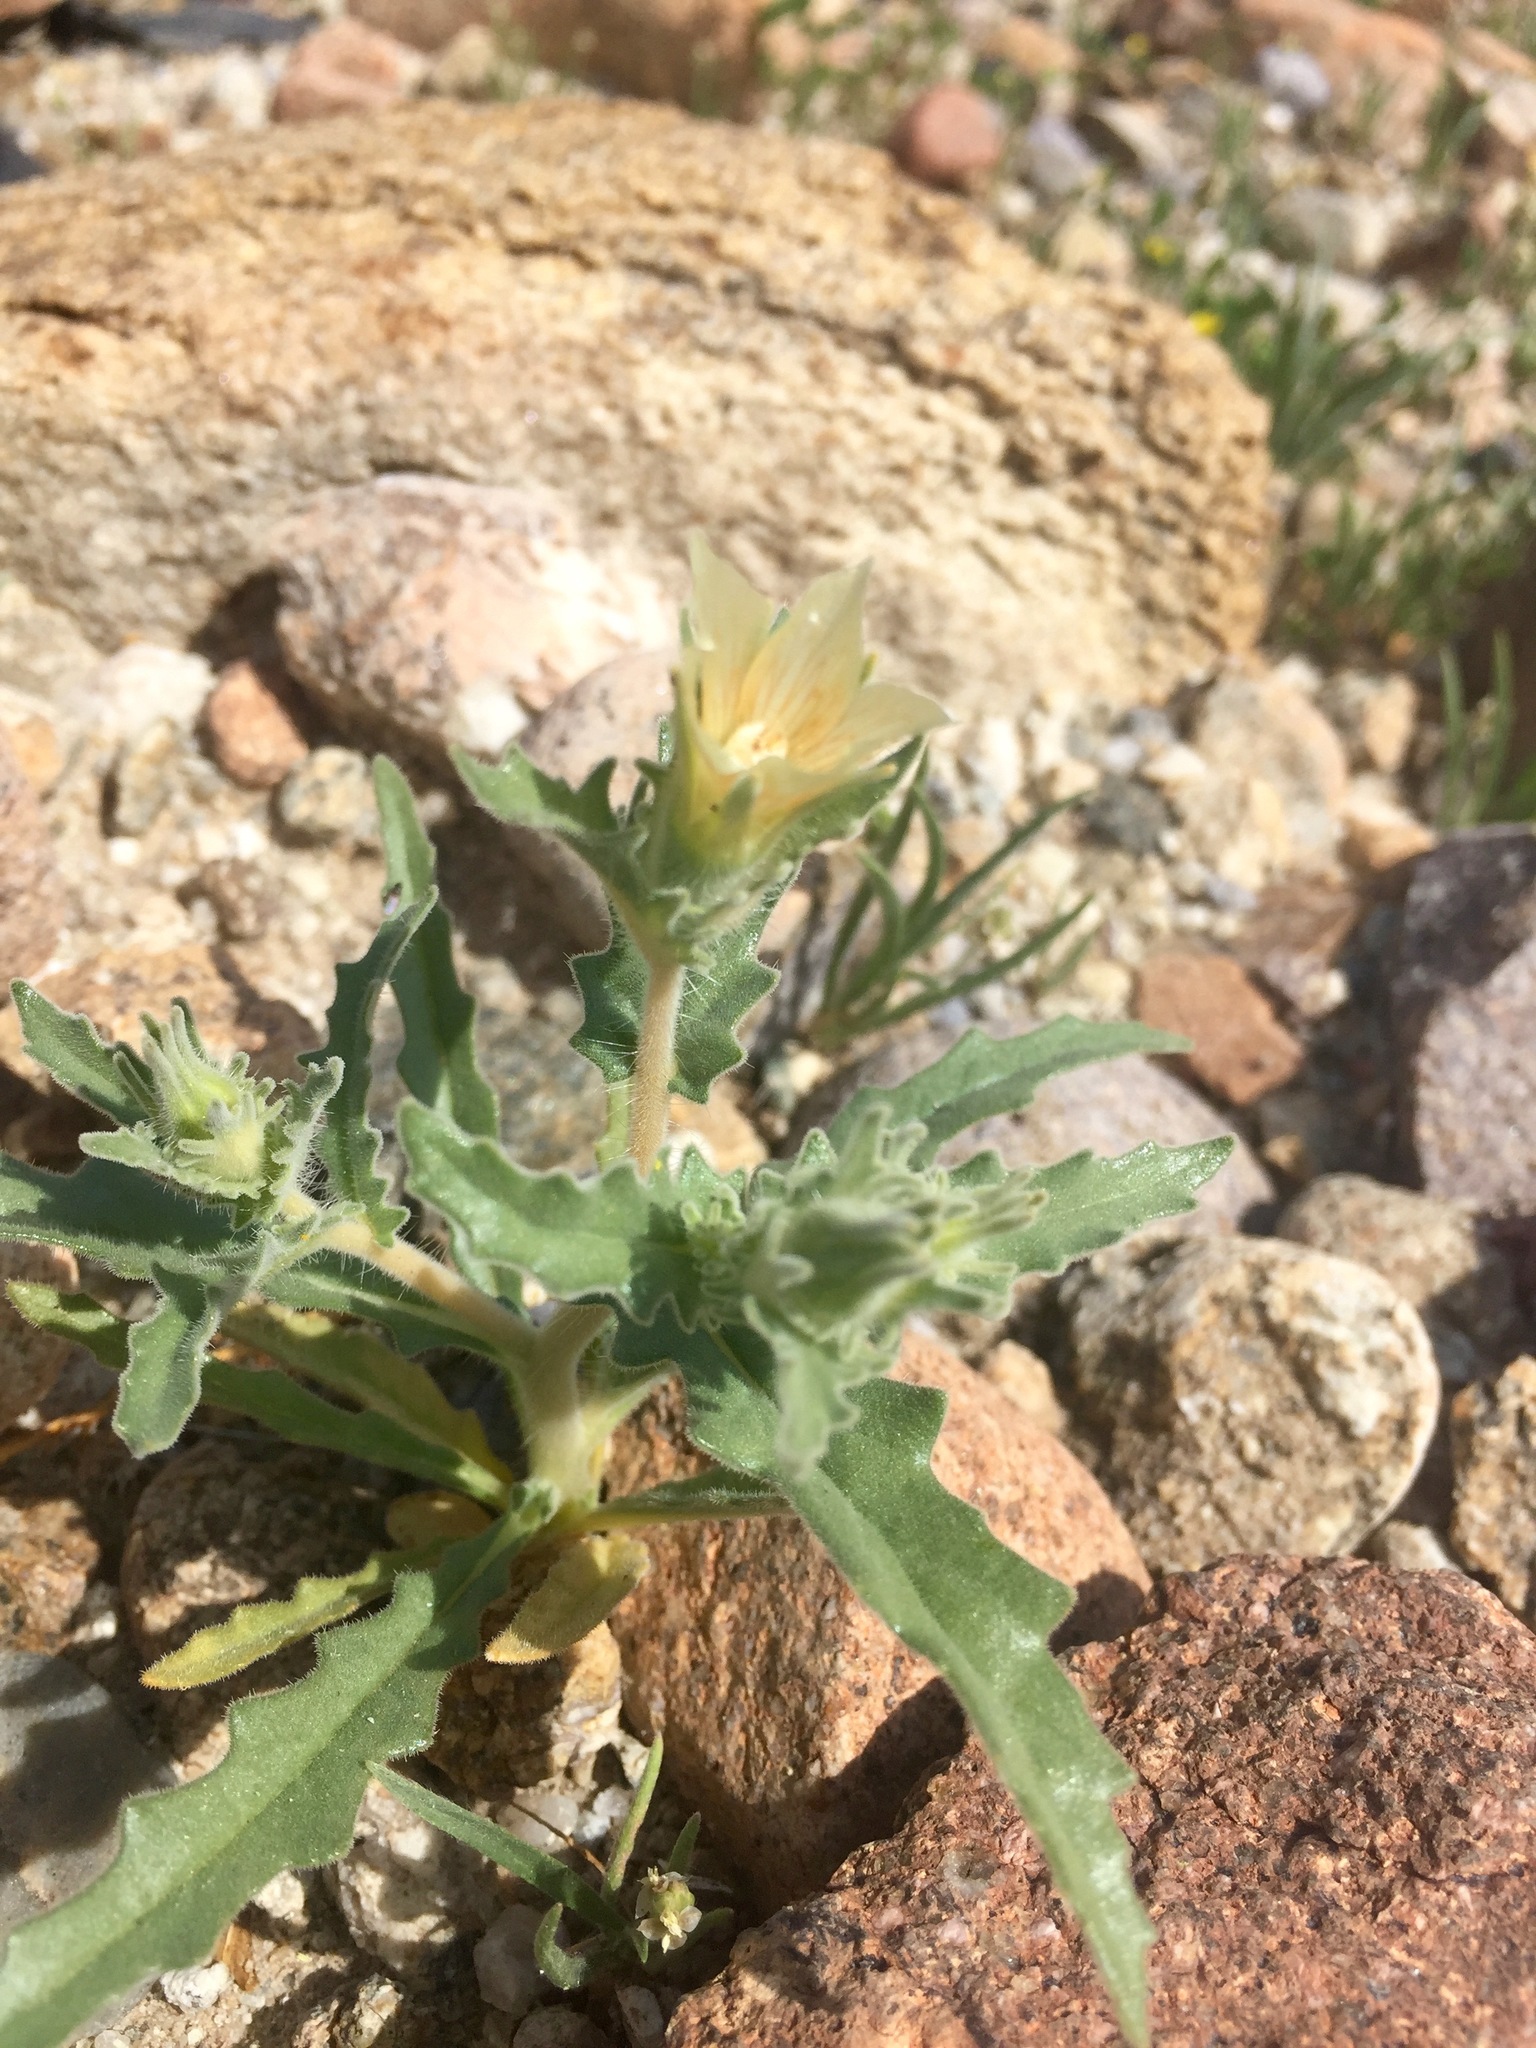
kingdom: Plantae
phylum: Tracheophyta
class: Magnoliopsida
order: Cornales
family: Loasaceae
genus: Mentzelia
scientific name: Mentzelia involucrata
